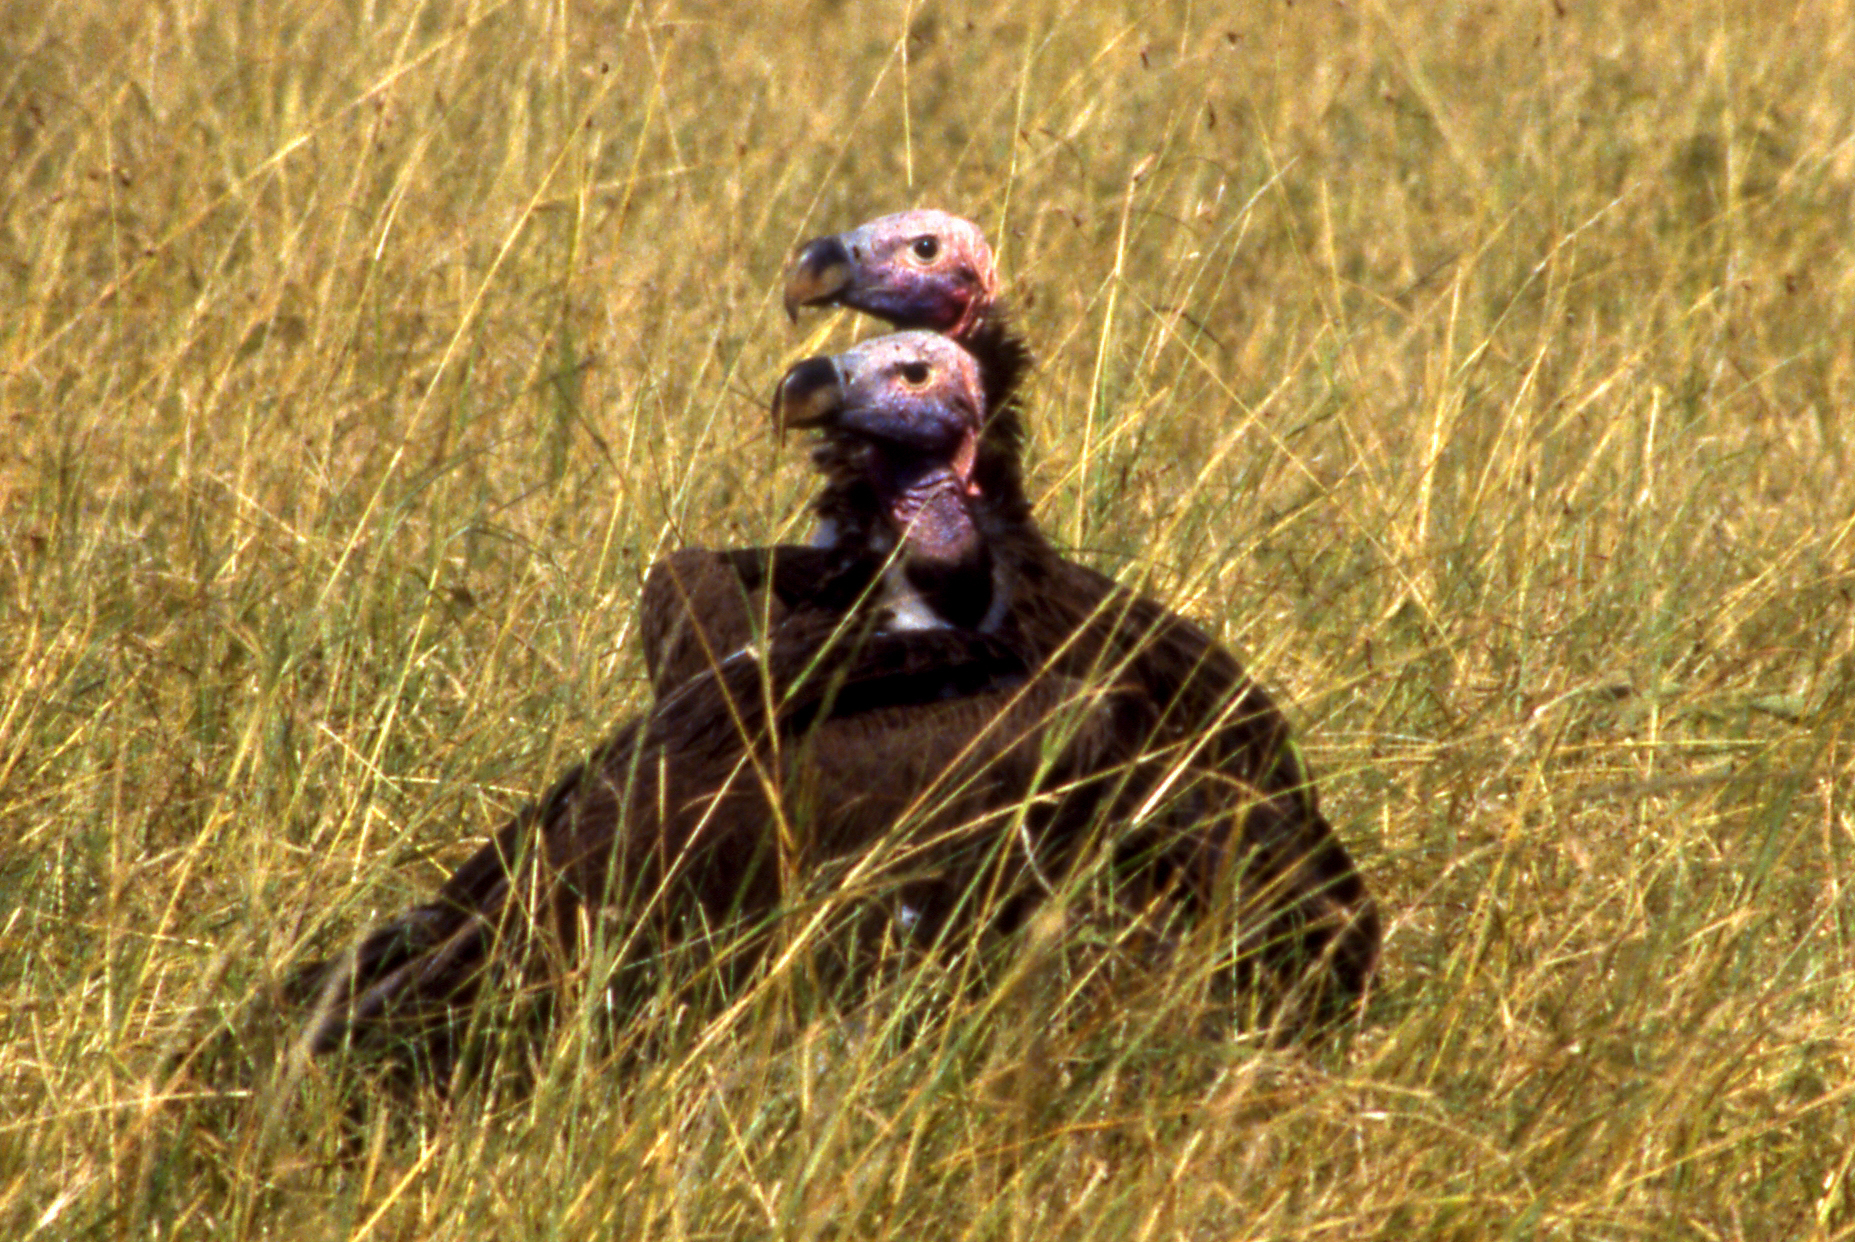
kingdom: Animalia
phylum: Chordata
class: Aves
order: Accipitriformes
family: Accipitridae
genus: Torgos
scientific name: Torgos tracheliotos
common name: Lappet-faced vulture
